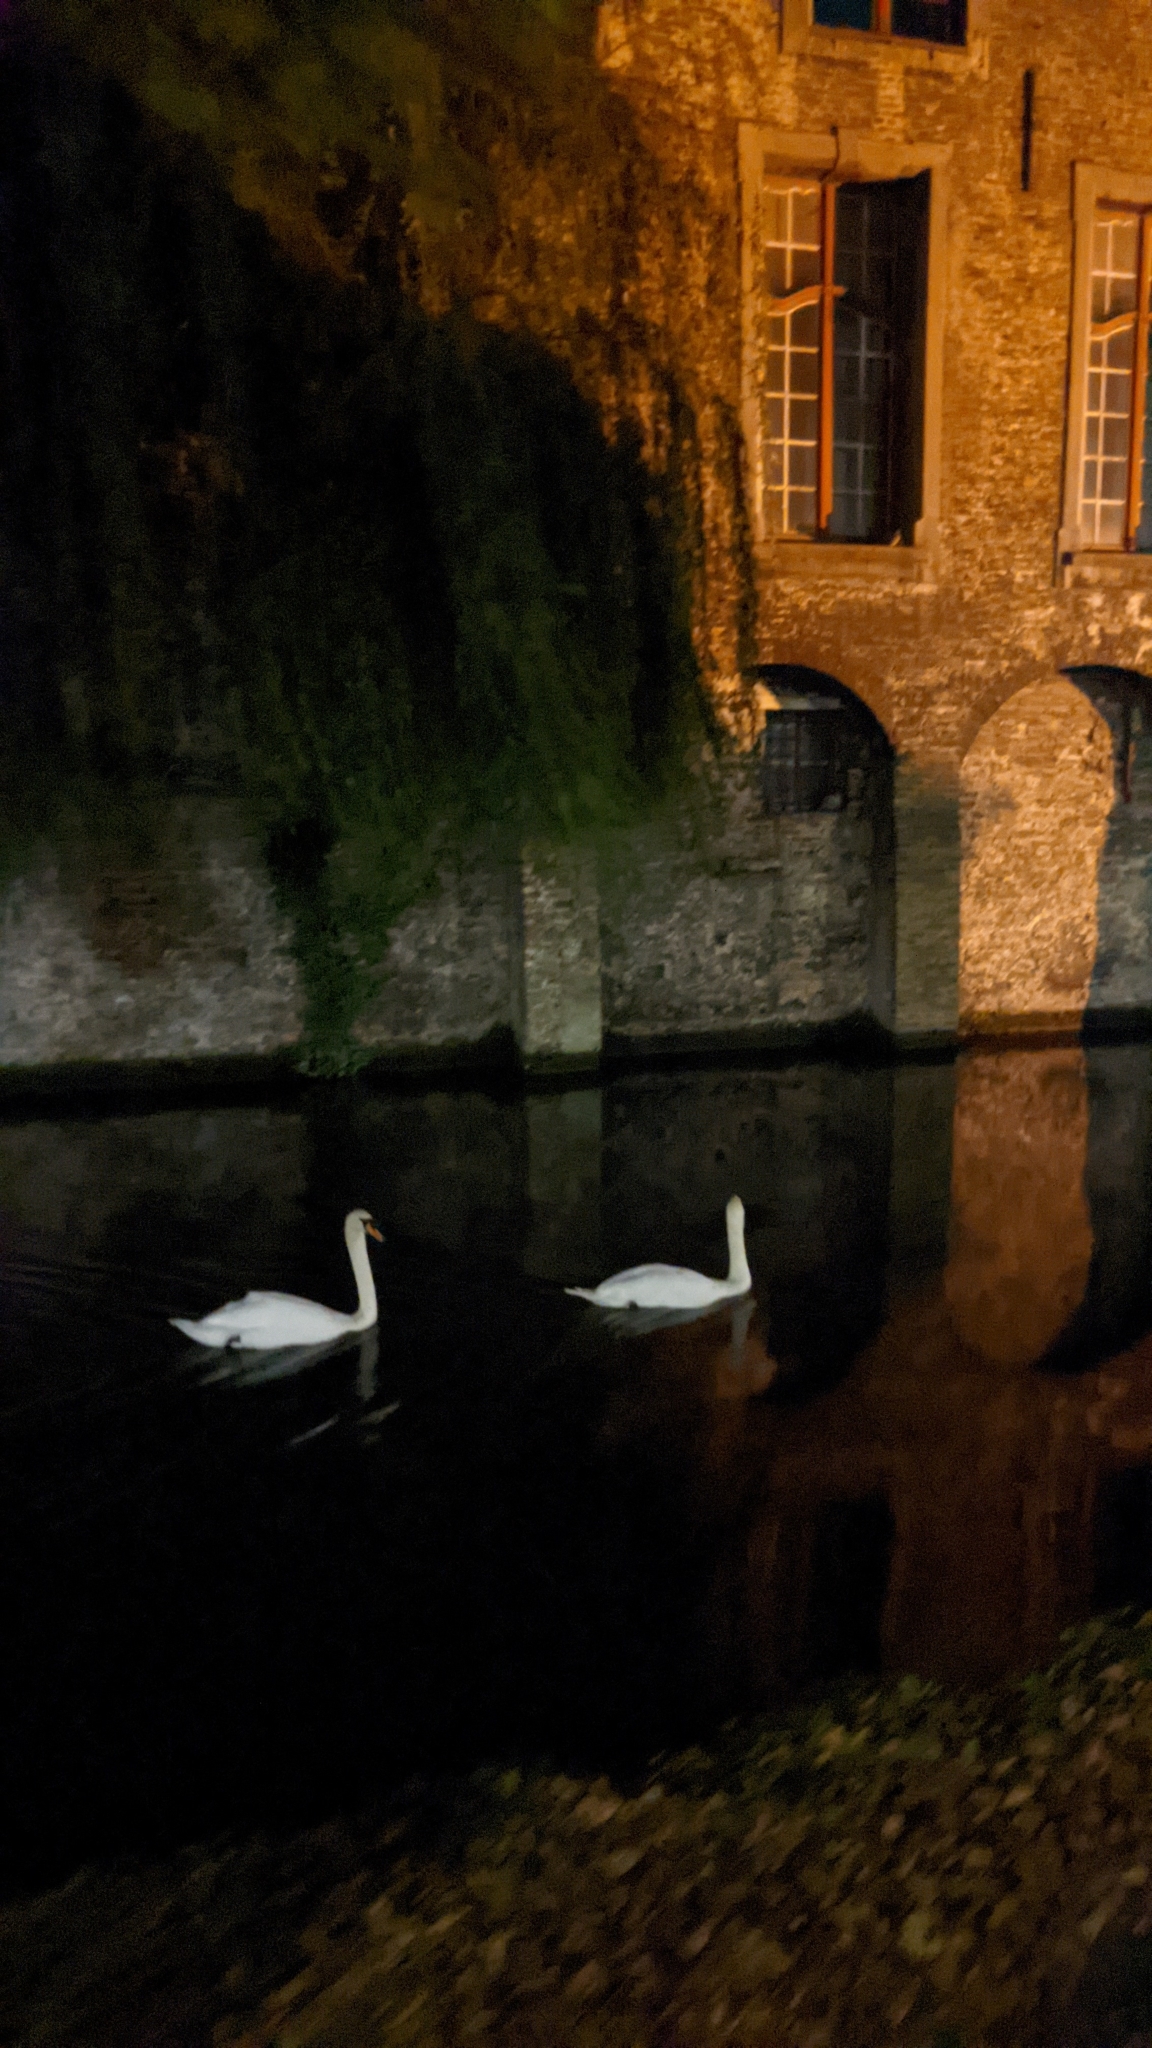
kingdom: Animalia
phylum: Chordata
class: Aves
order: Anseriformes
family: Anatidae
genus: Cygnus
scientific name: Cygnus olor
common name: Mute swan
